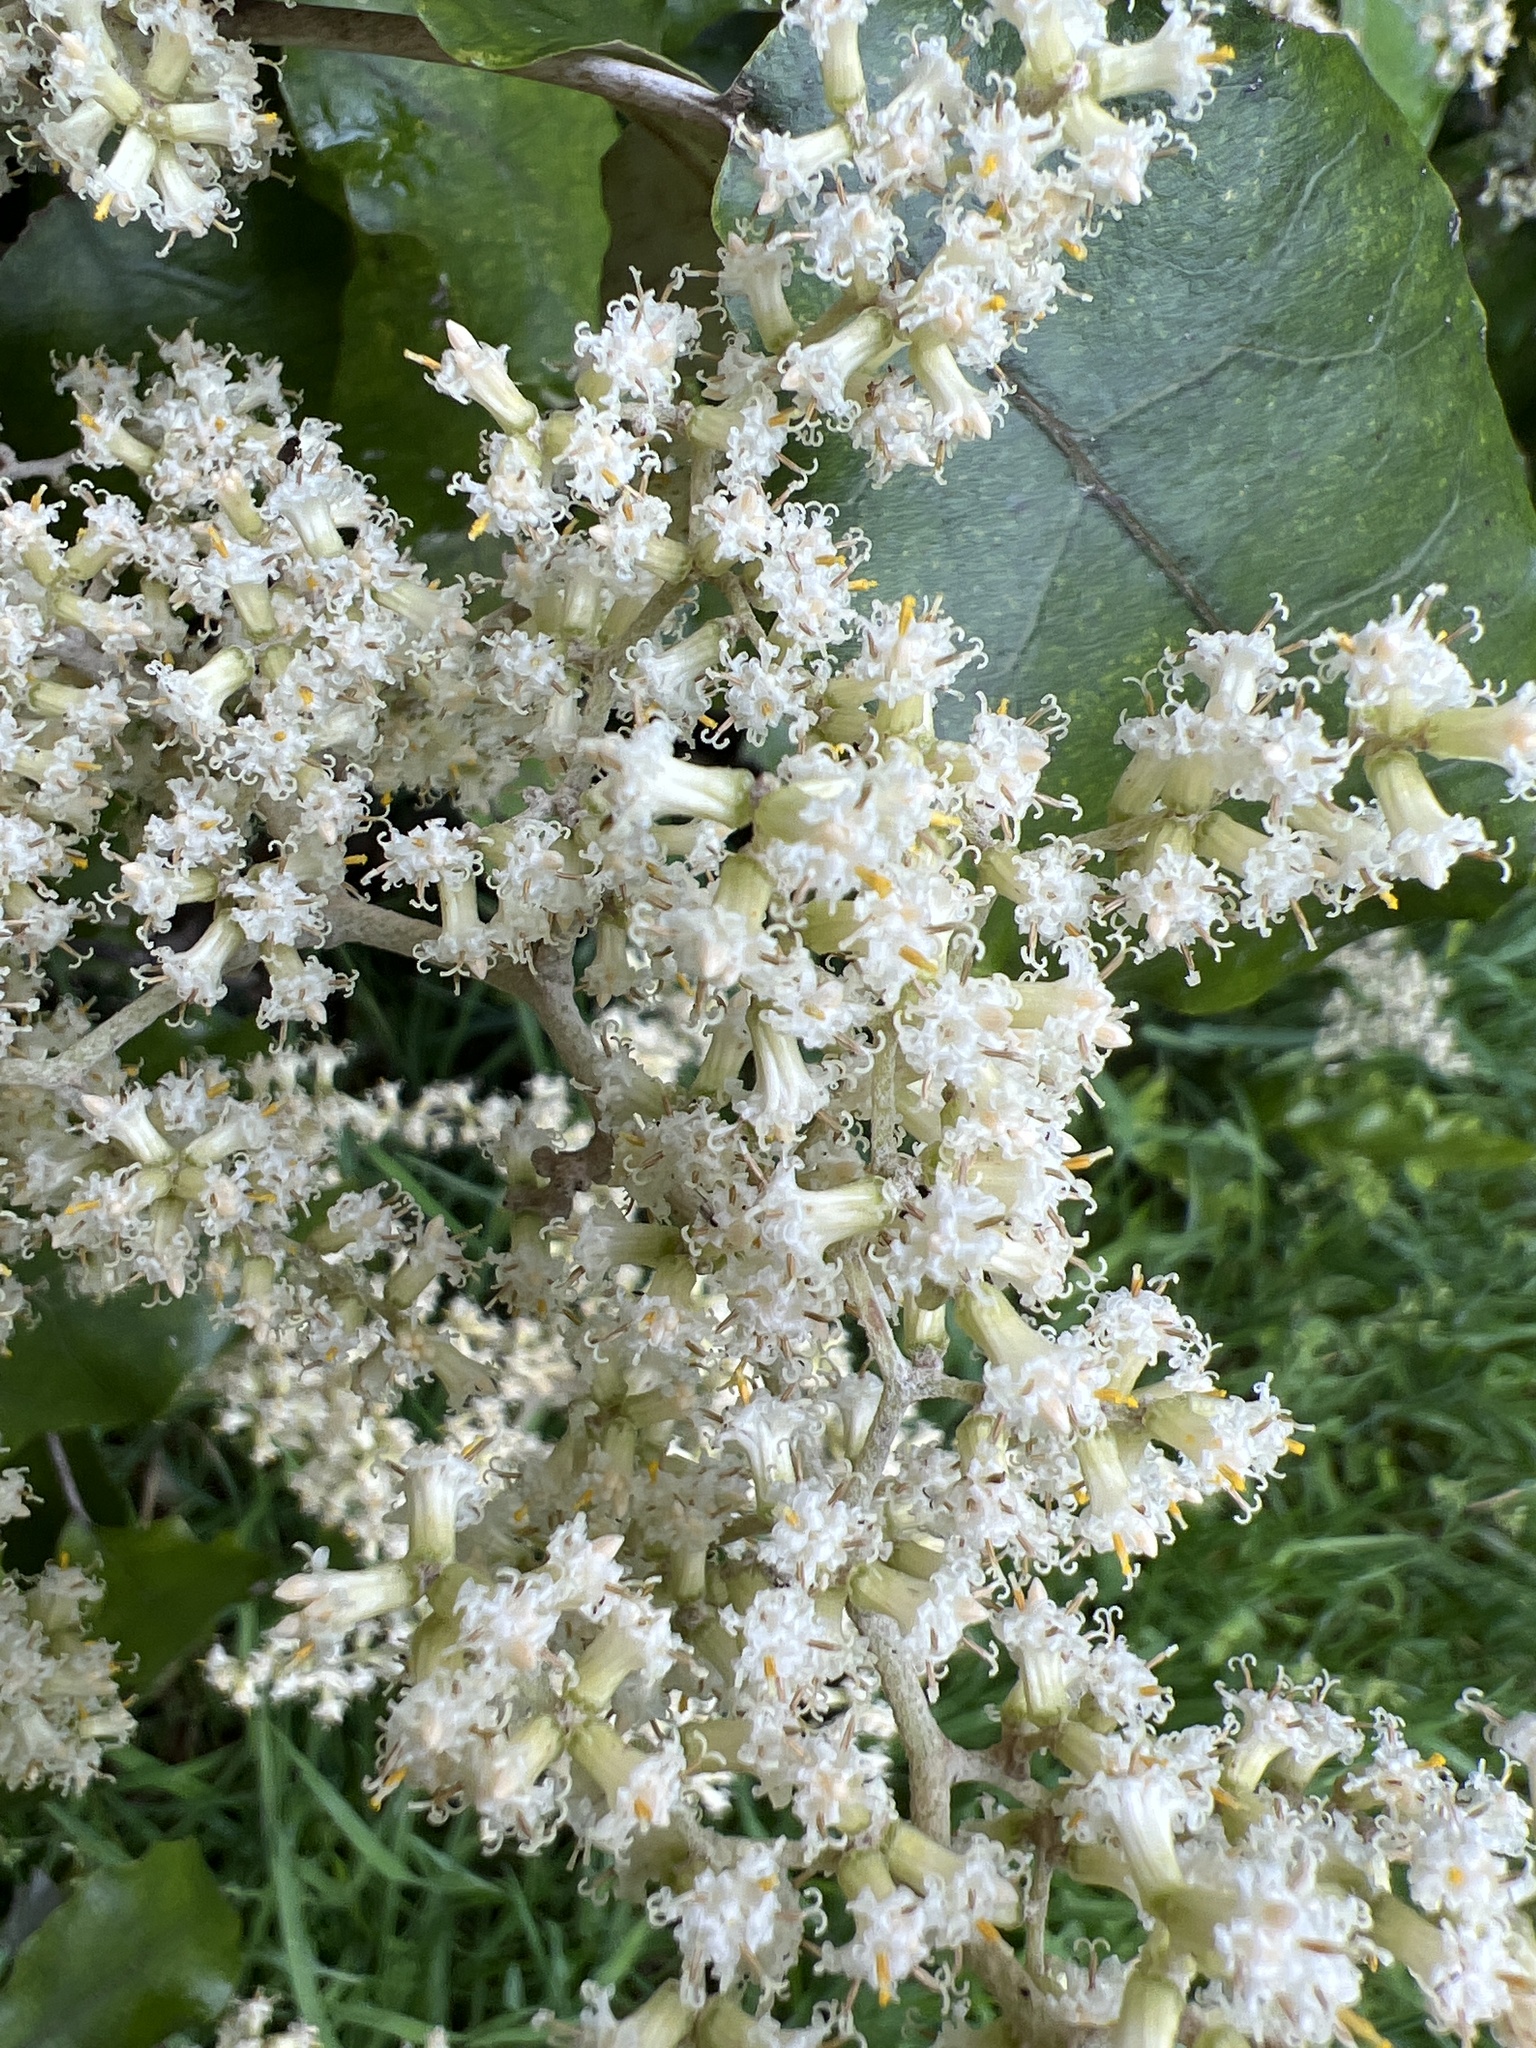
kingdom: Plantae
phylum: Tracheophyta
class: Magnoliopsida
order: Asterales
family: Asteraceae
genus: Brachyglottis
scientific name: Brachyglottis repanda
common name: Hedge ragwort
